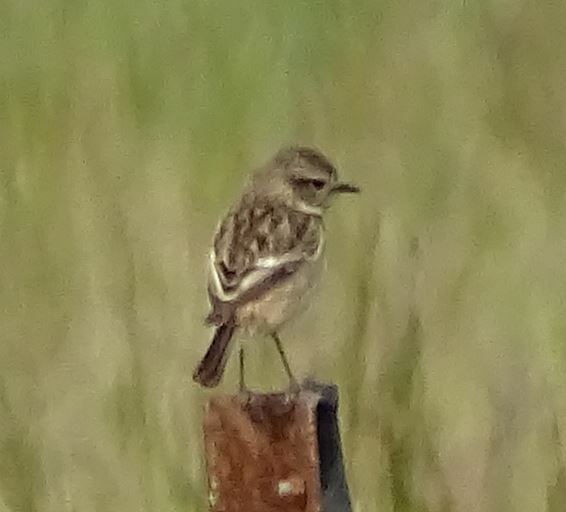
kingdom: Animalia
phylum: Chordata
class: Aves
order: Passeriformes
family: Muscicapidae
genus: Saxicola
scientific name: Saxicola rubicola
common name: European stonechat
